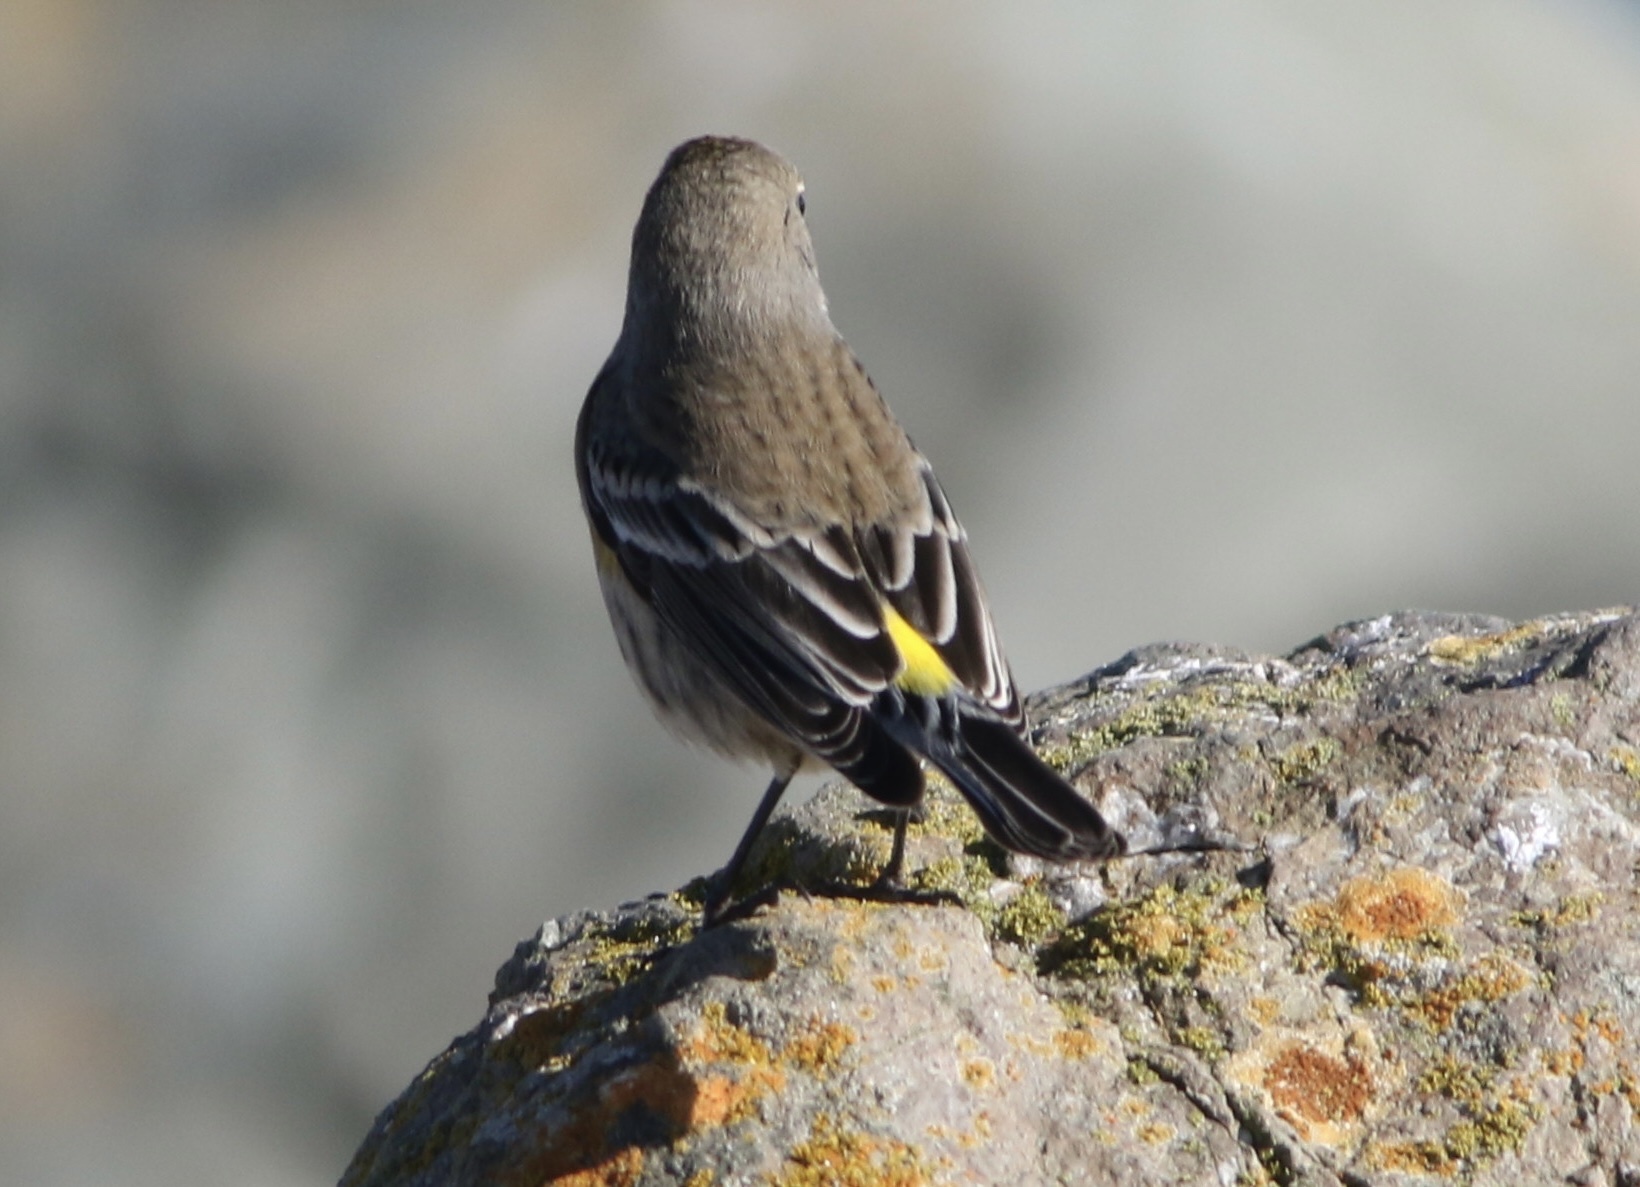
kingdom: Animalia
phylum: Chordata
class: Aves
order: Passeriformes
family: Parulidae
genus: Setophaga
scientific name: Setophaga coronata
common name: Myrtle warbler
